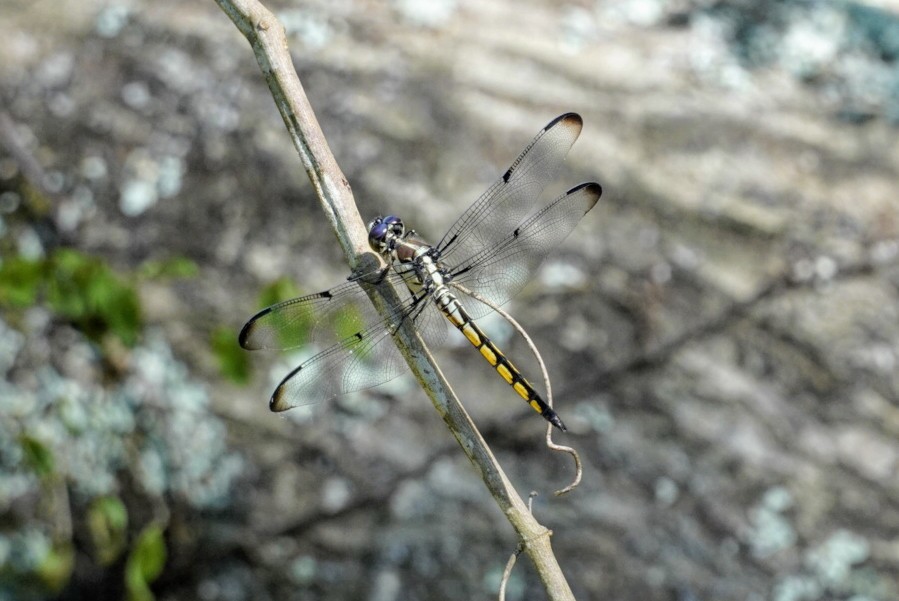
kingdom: Animalia
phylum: Arthropoda
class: Insecta
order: Odonata
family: Libellulidae
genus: Libellula
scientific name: Libellula vibrans
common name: Great blue skimmer
